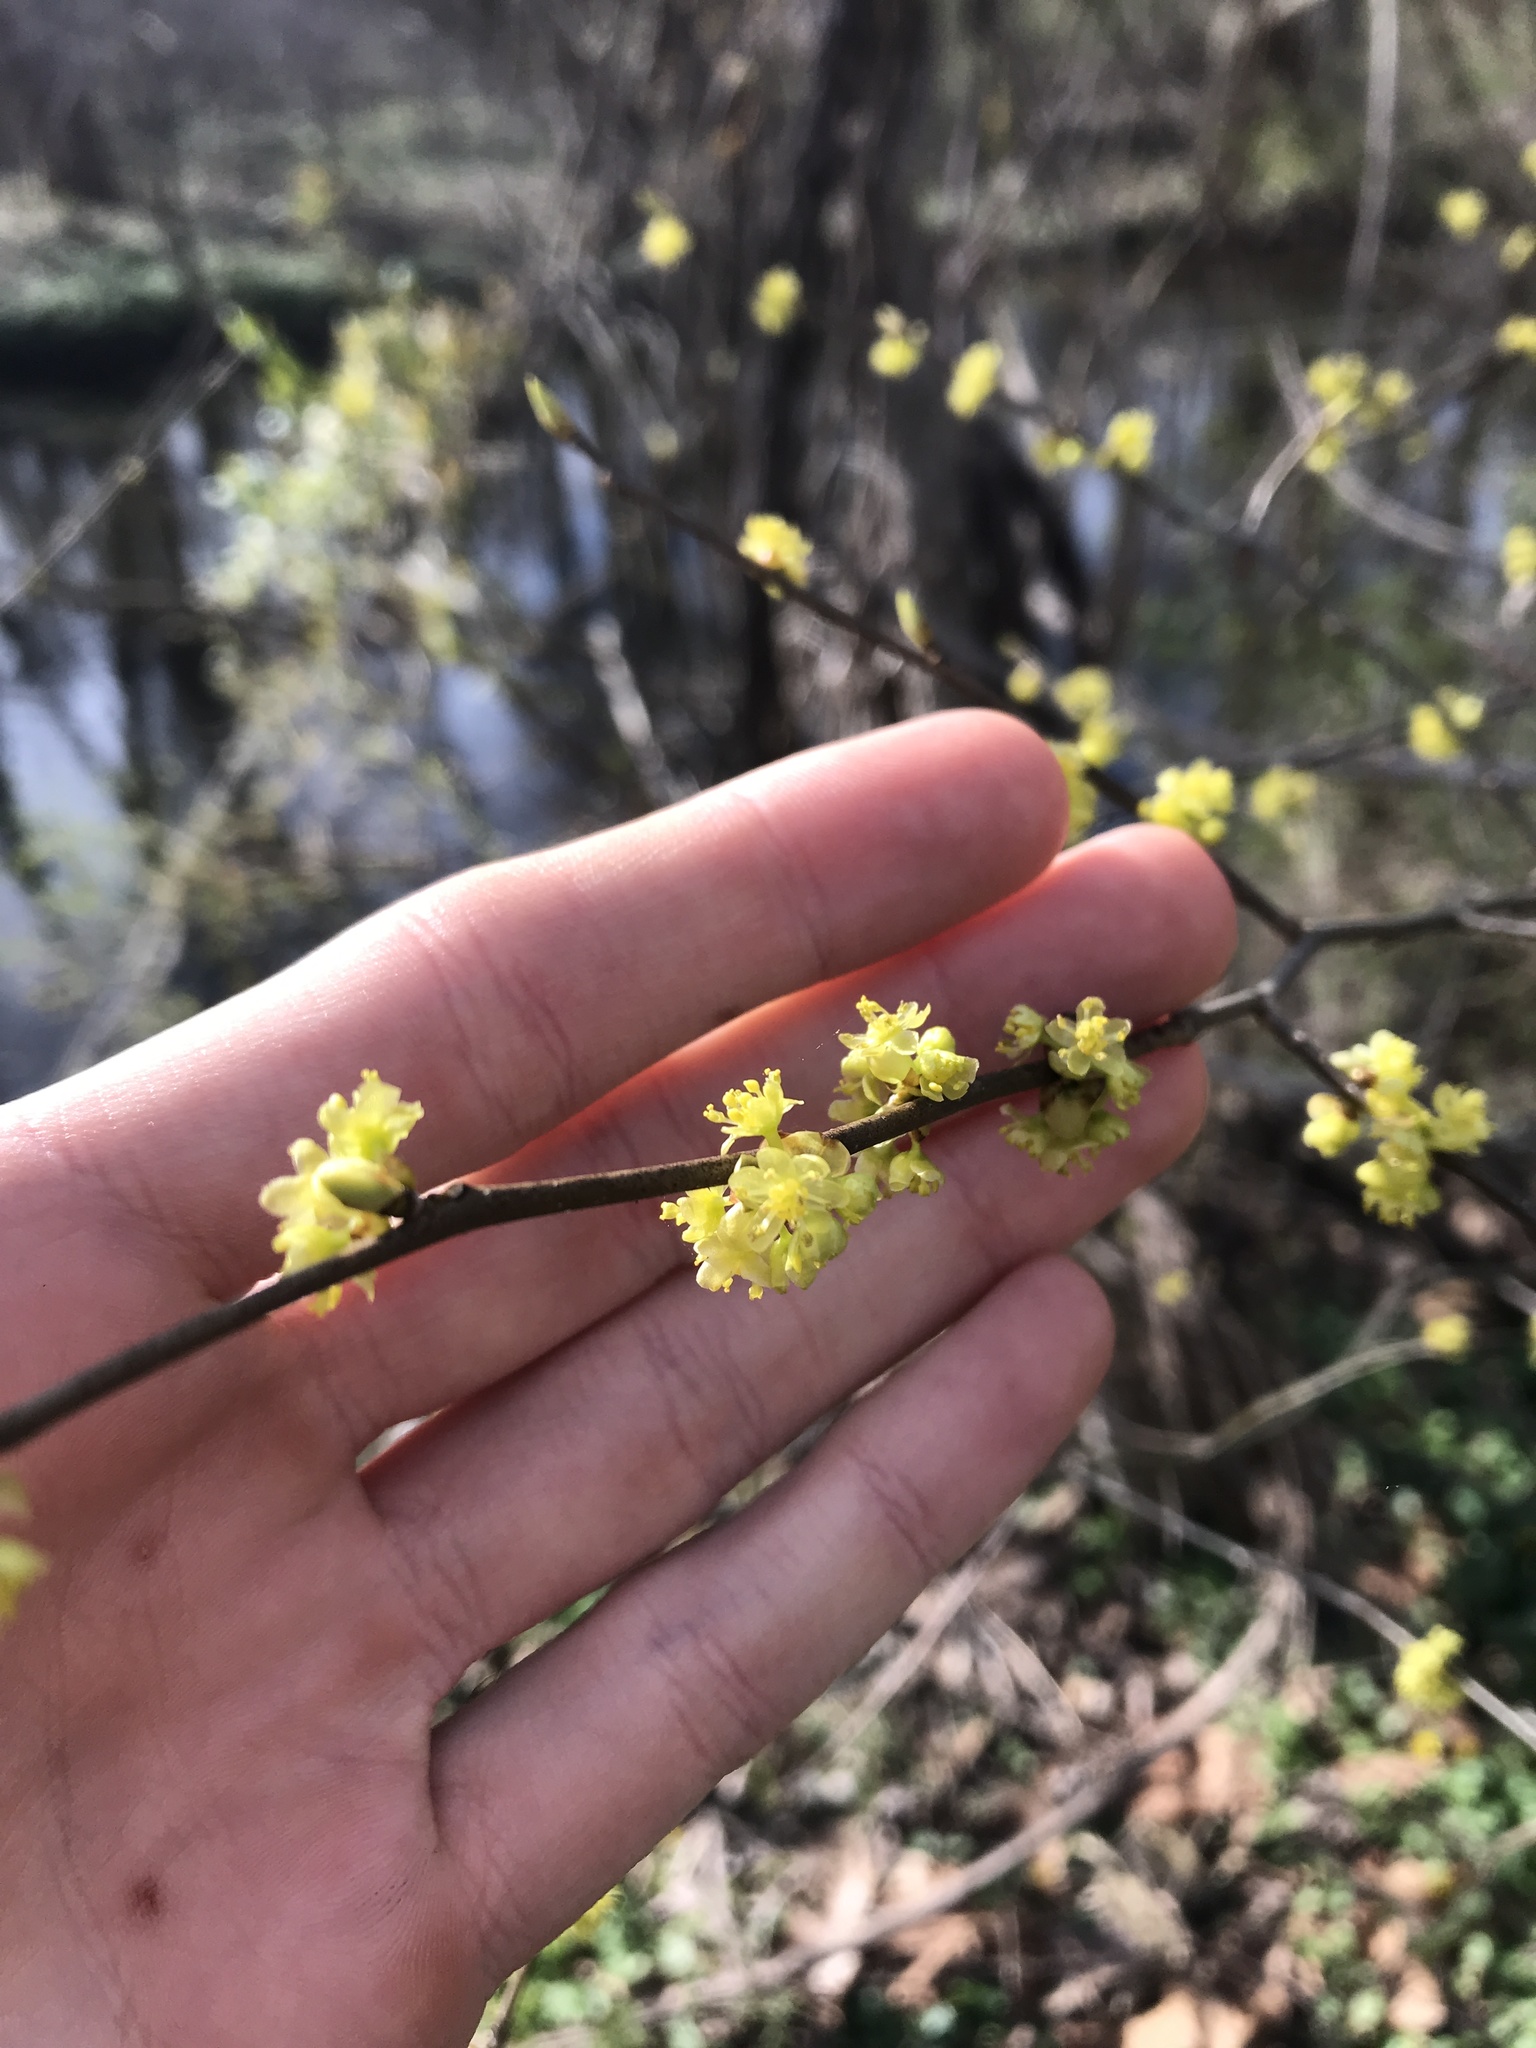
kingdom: Plantae
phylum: Tracheophyta
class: Magnoliopsida
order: Laurales
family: Lauraceae
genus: Lindera
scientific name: Lindera benzoin
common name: Spicebush
